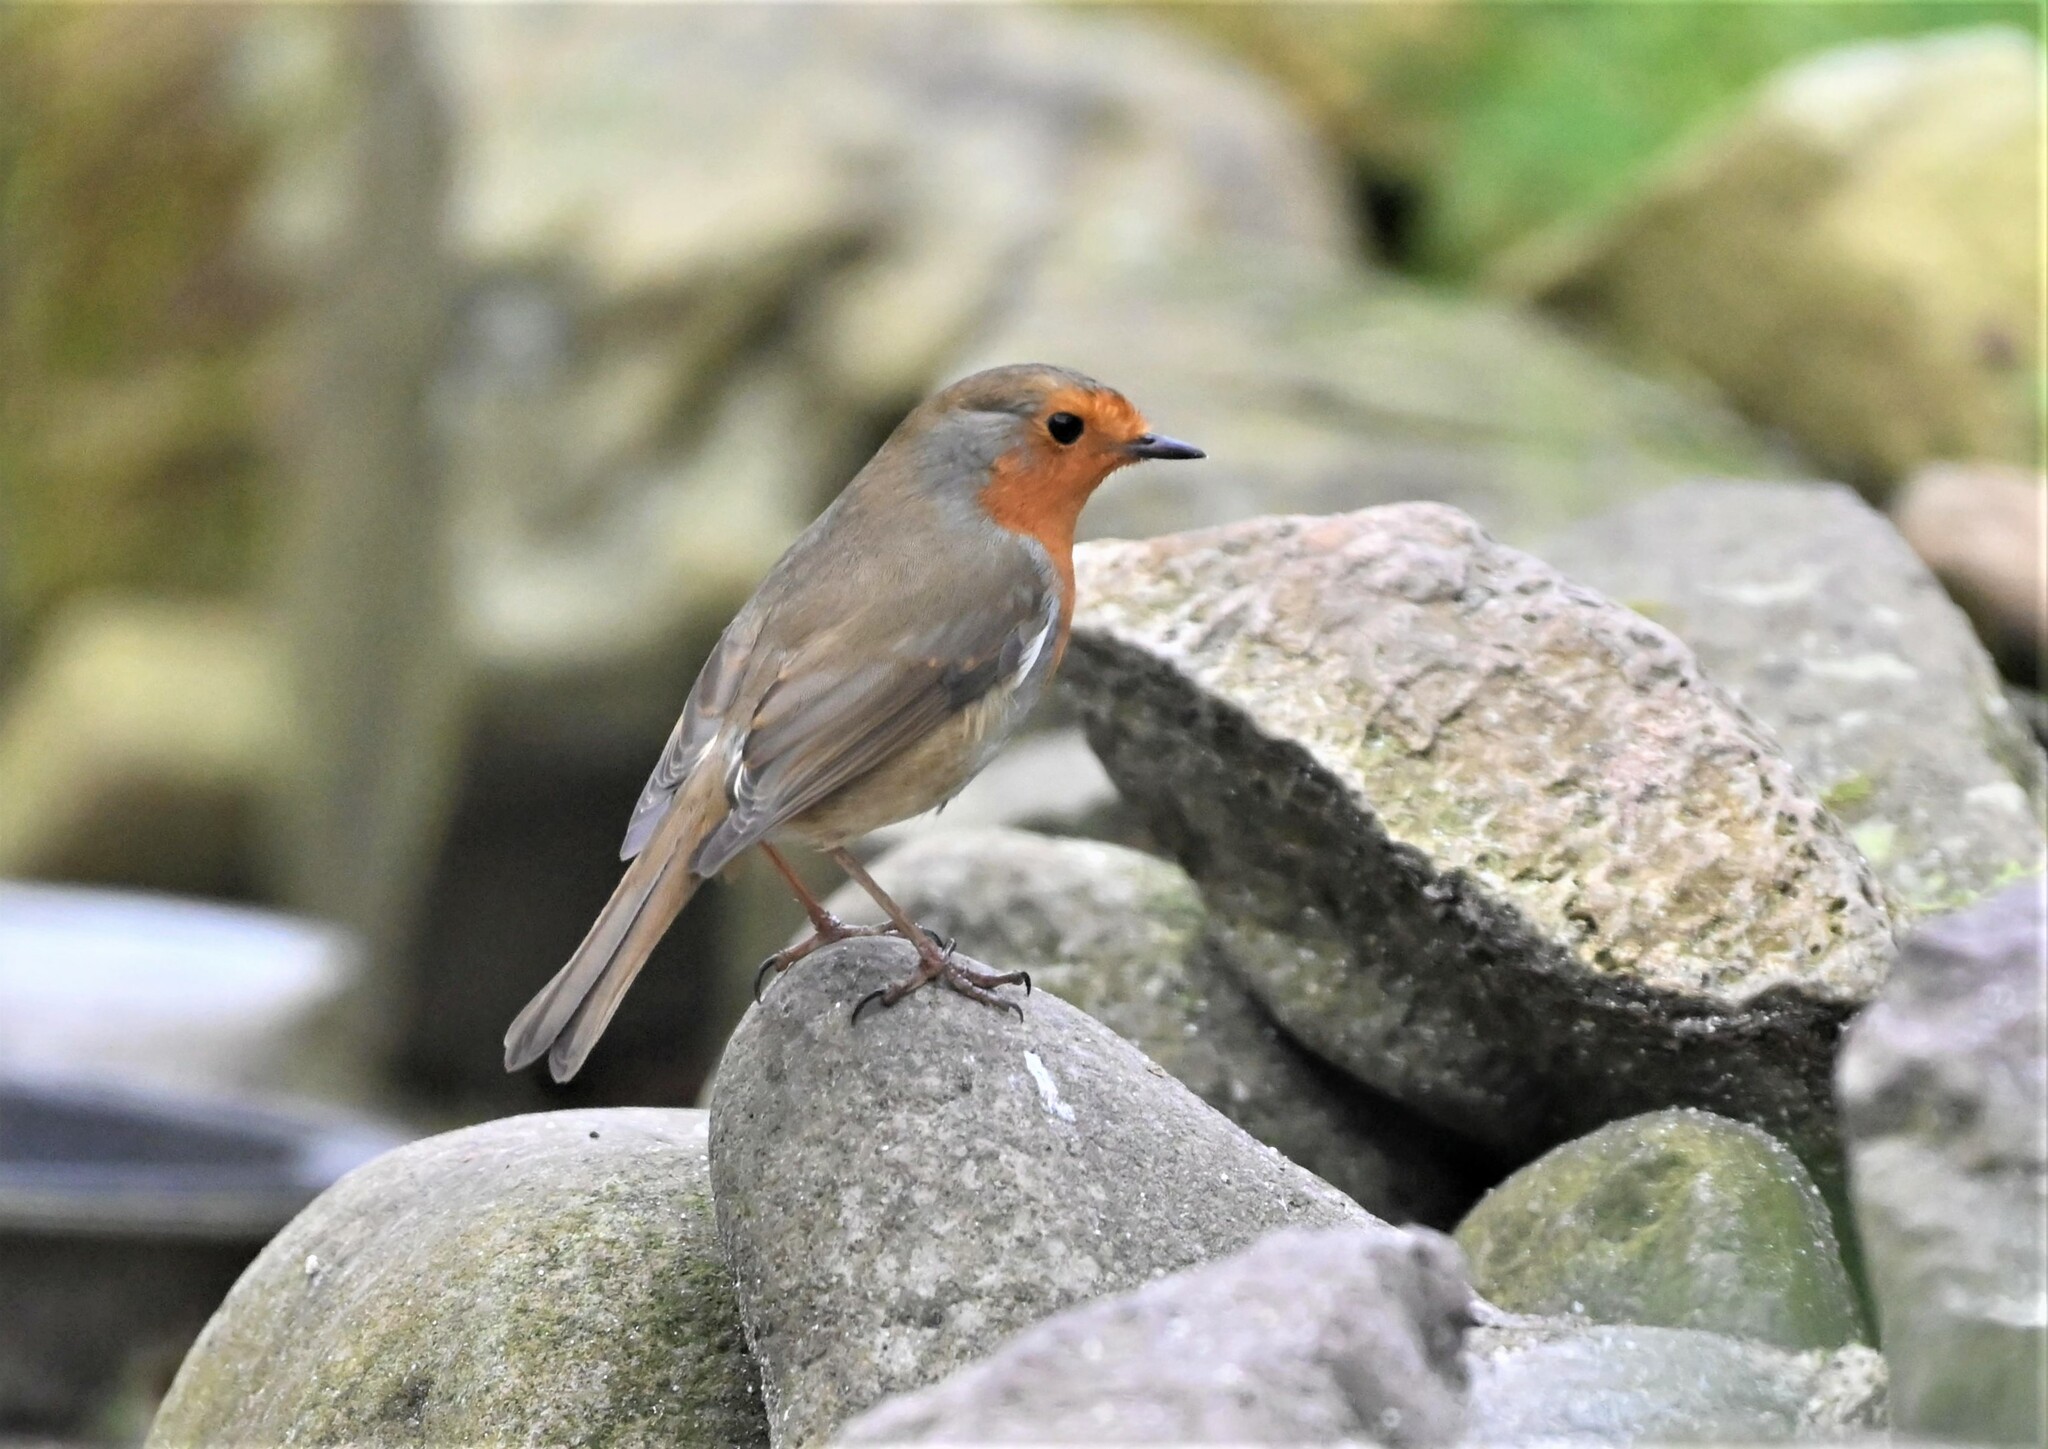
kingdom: Animalia
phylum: Chordata
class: Aves
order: Passeriformes
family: Muscicapidae
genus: Erithacus
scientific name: Erithacus rubecula
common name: European robin
